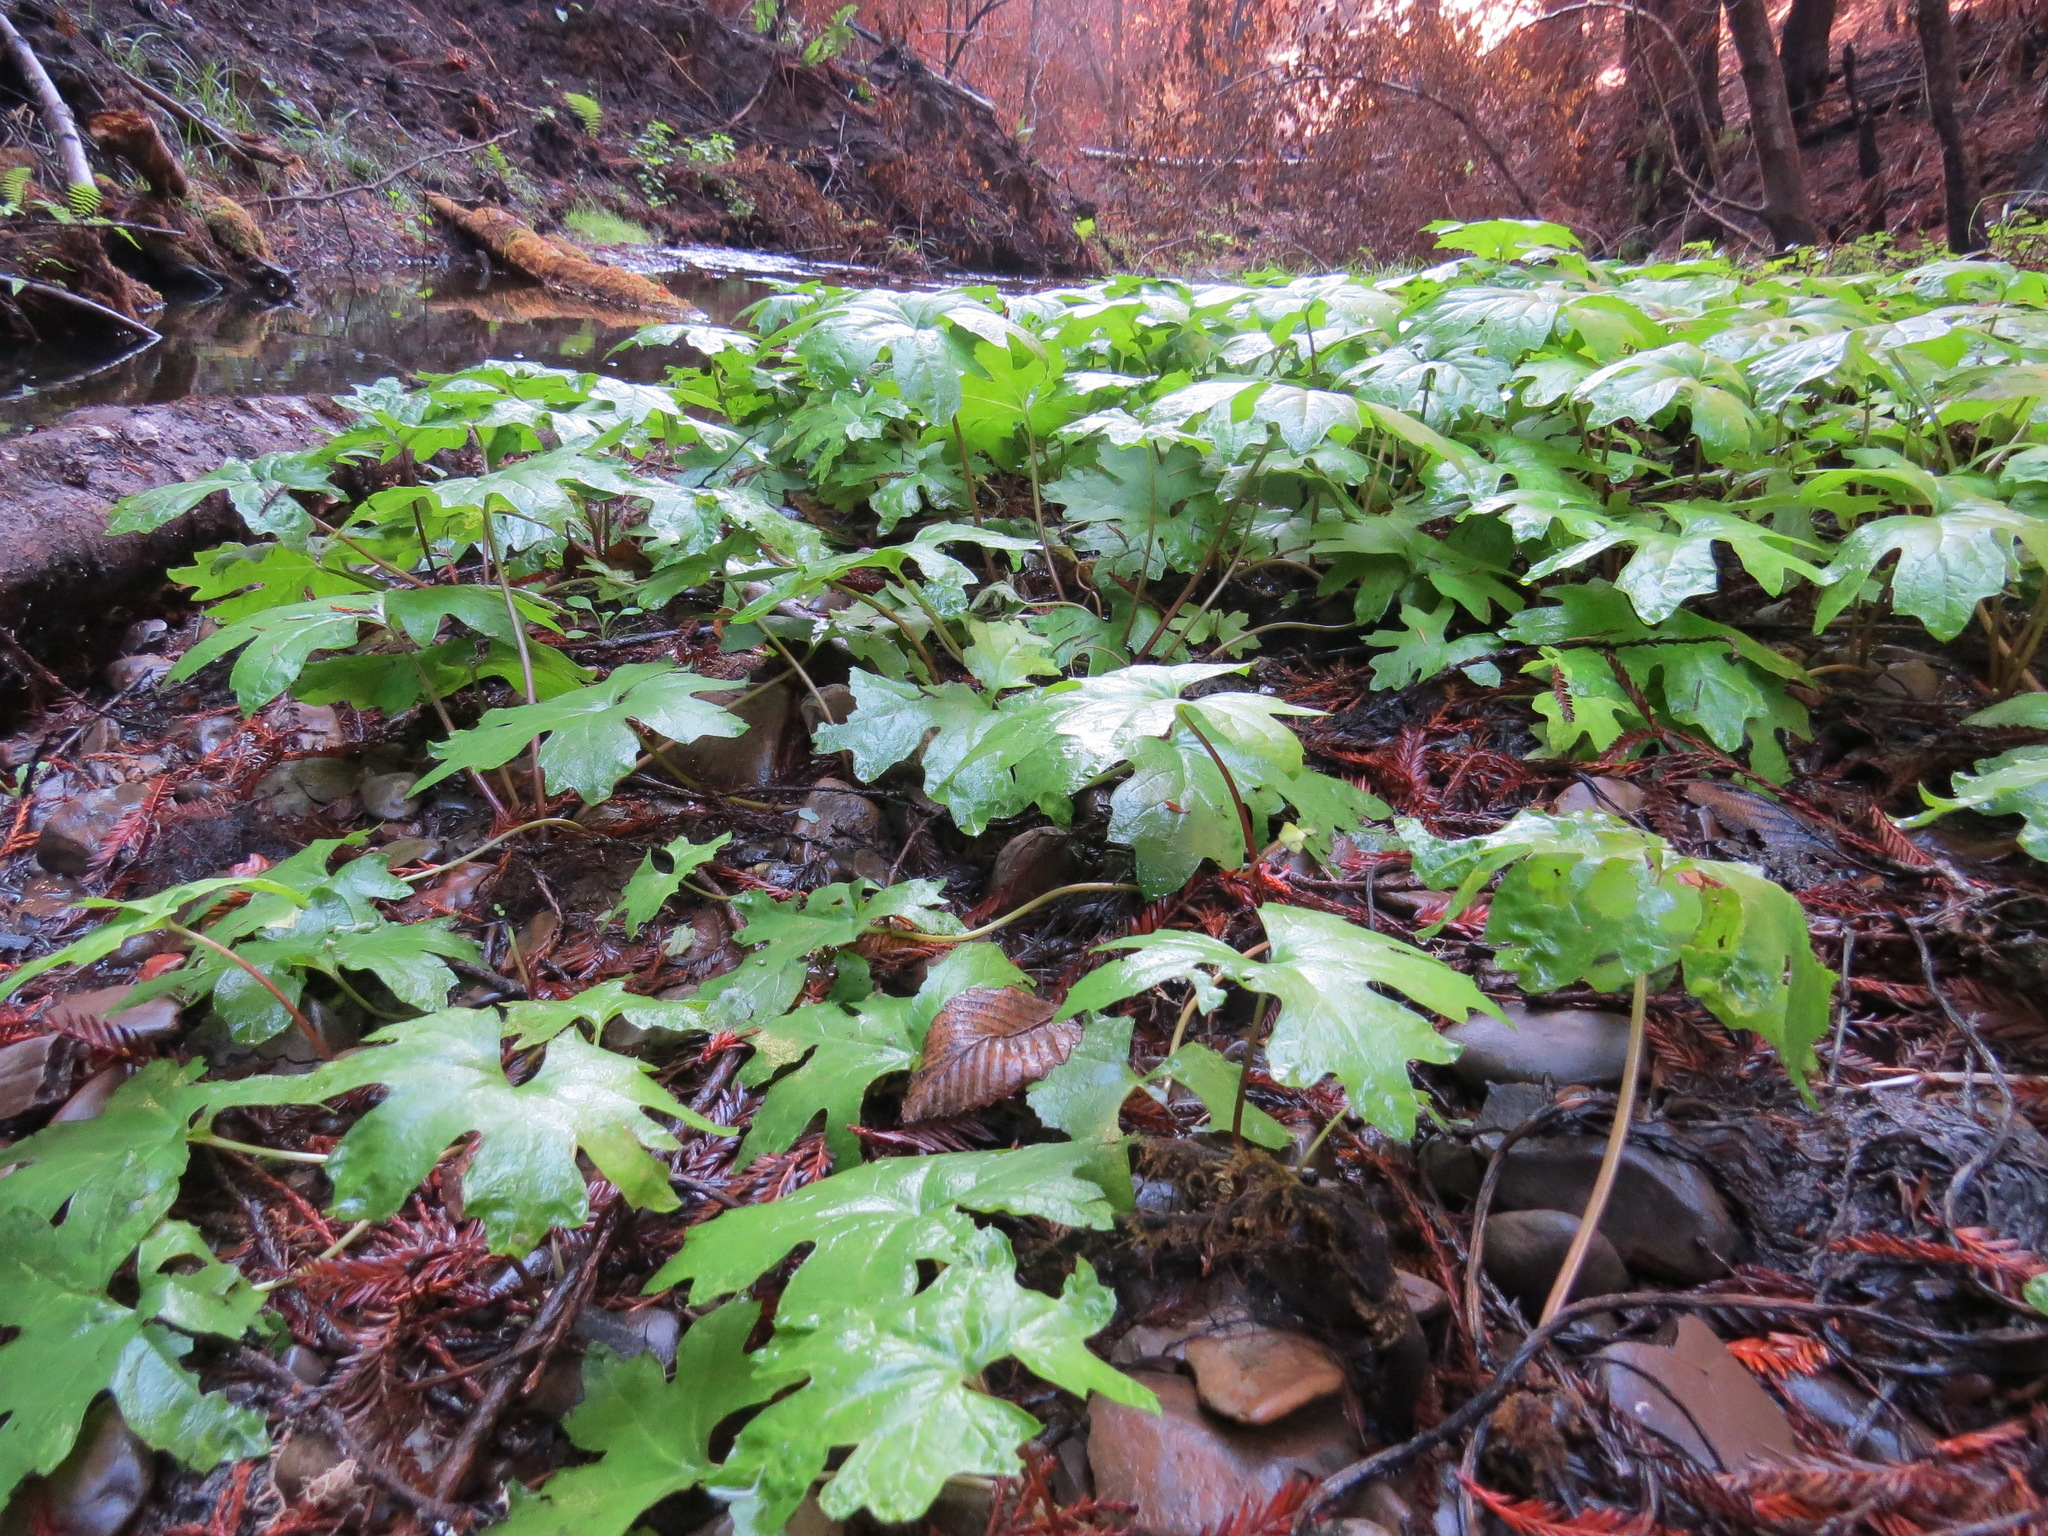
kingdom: Plantae
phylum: Tracheophyta
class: Magnoliopsida
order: Asterales
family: Asteraceae
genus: Petasites
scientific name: Petasites frigidus
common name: Arctic butterbur
